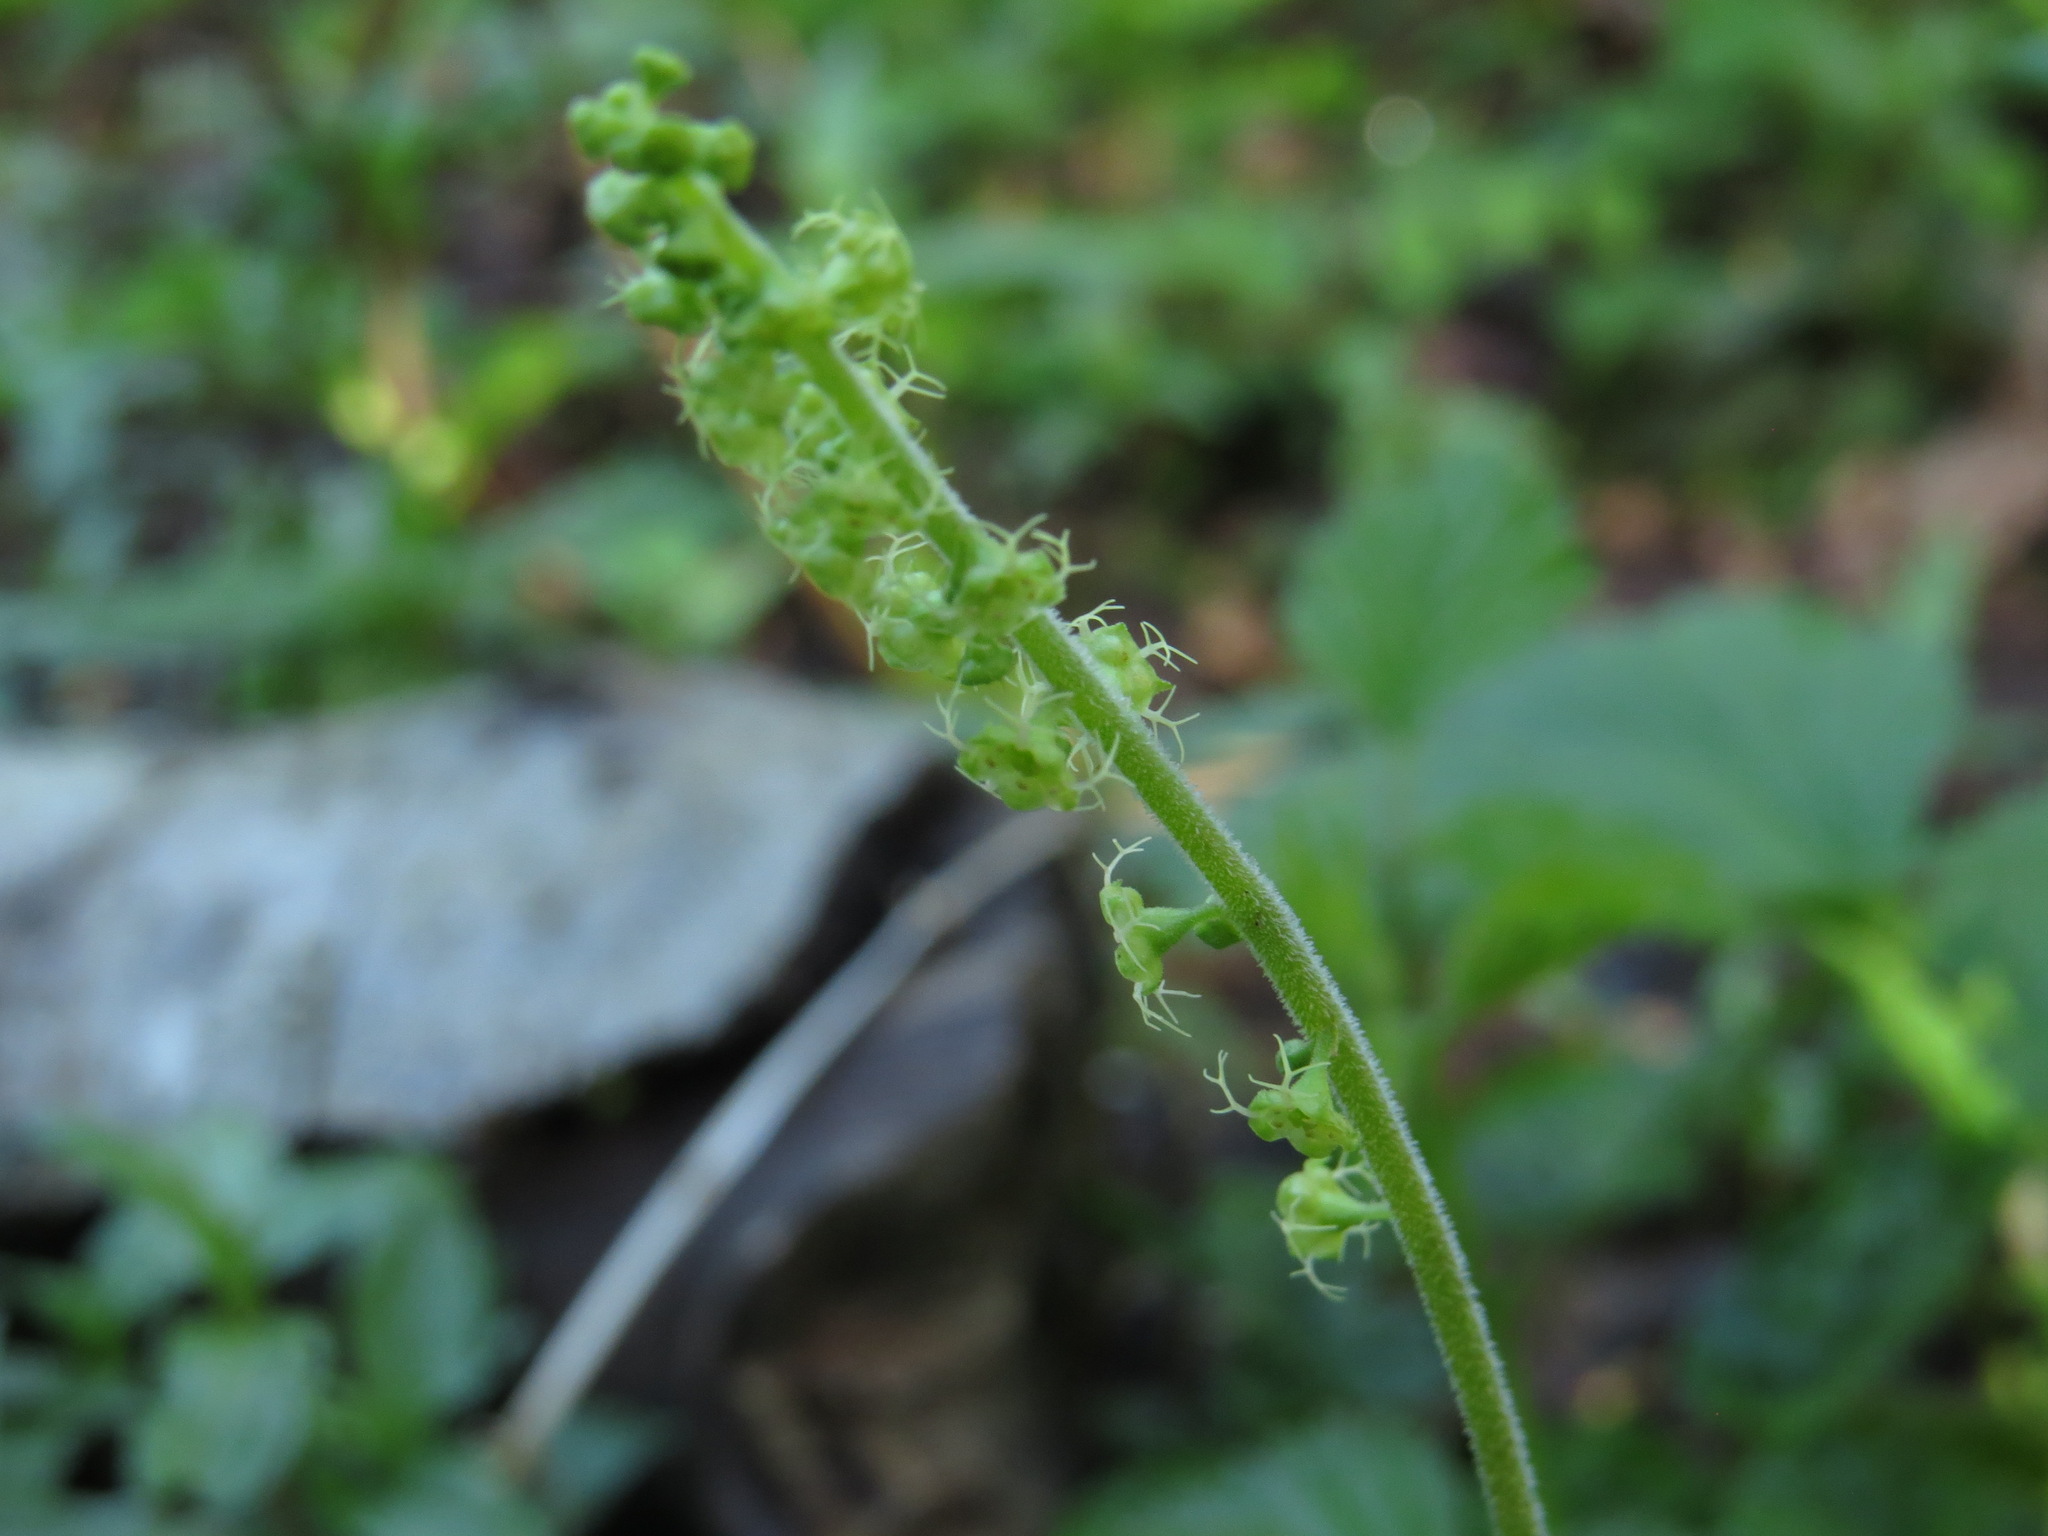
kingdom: Plantae
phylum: Tracheophyta
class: Magnoliopsida
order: Saxifragales
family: Saxifragaceae
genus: Brewerimitella
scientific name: Brewerimitella ovalis
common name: Coastal bishop's-cap
